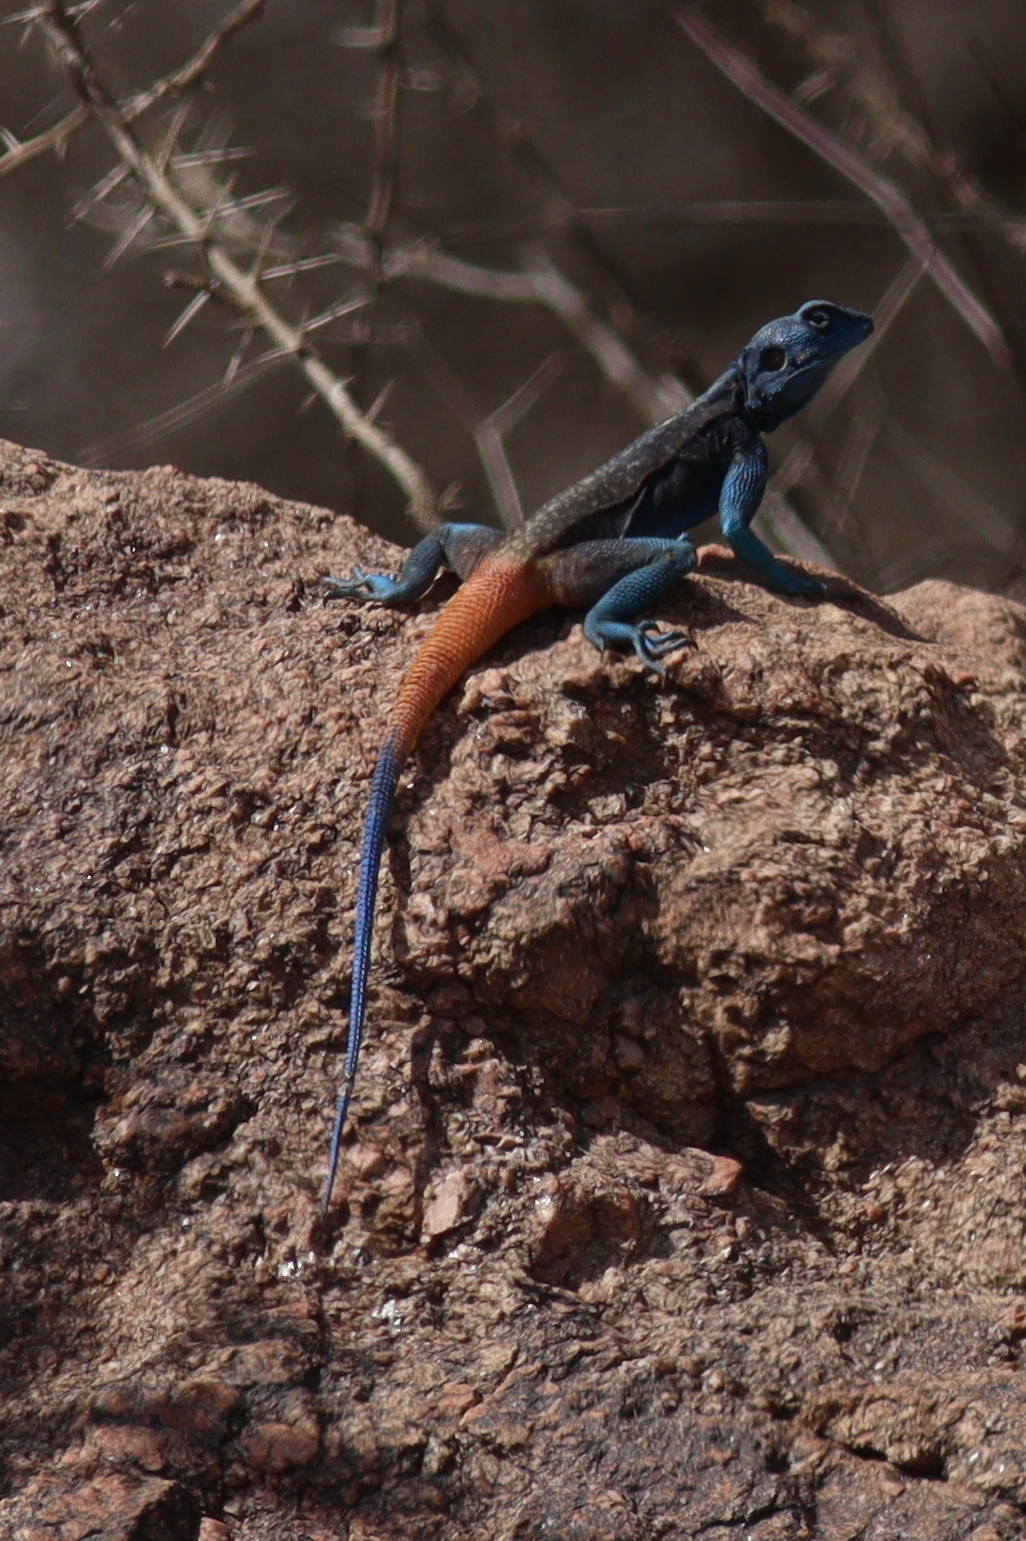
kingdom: Animalia
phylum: Chordata
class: Squamata
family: Agamidae
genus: Acanthocercus
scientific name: Acanthocercus adramitanus
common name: Anderson's rock agama
